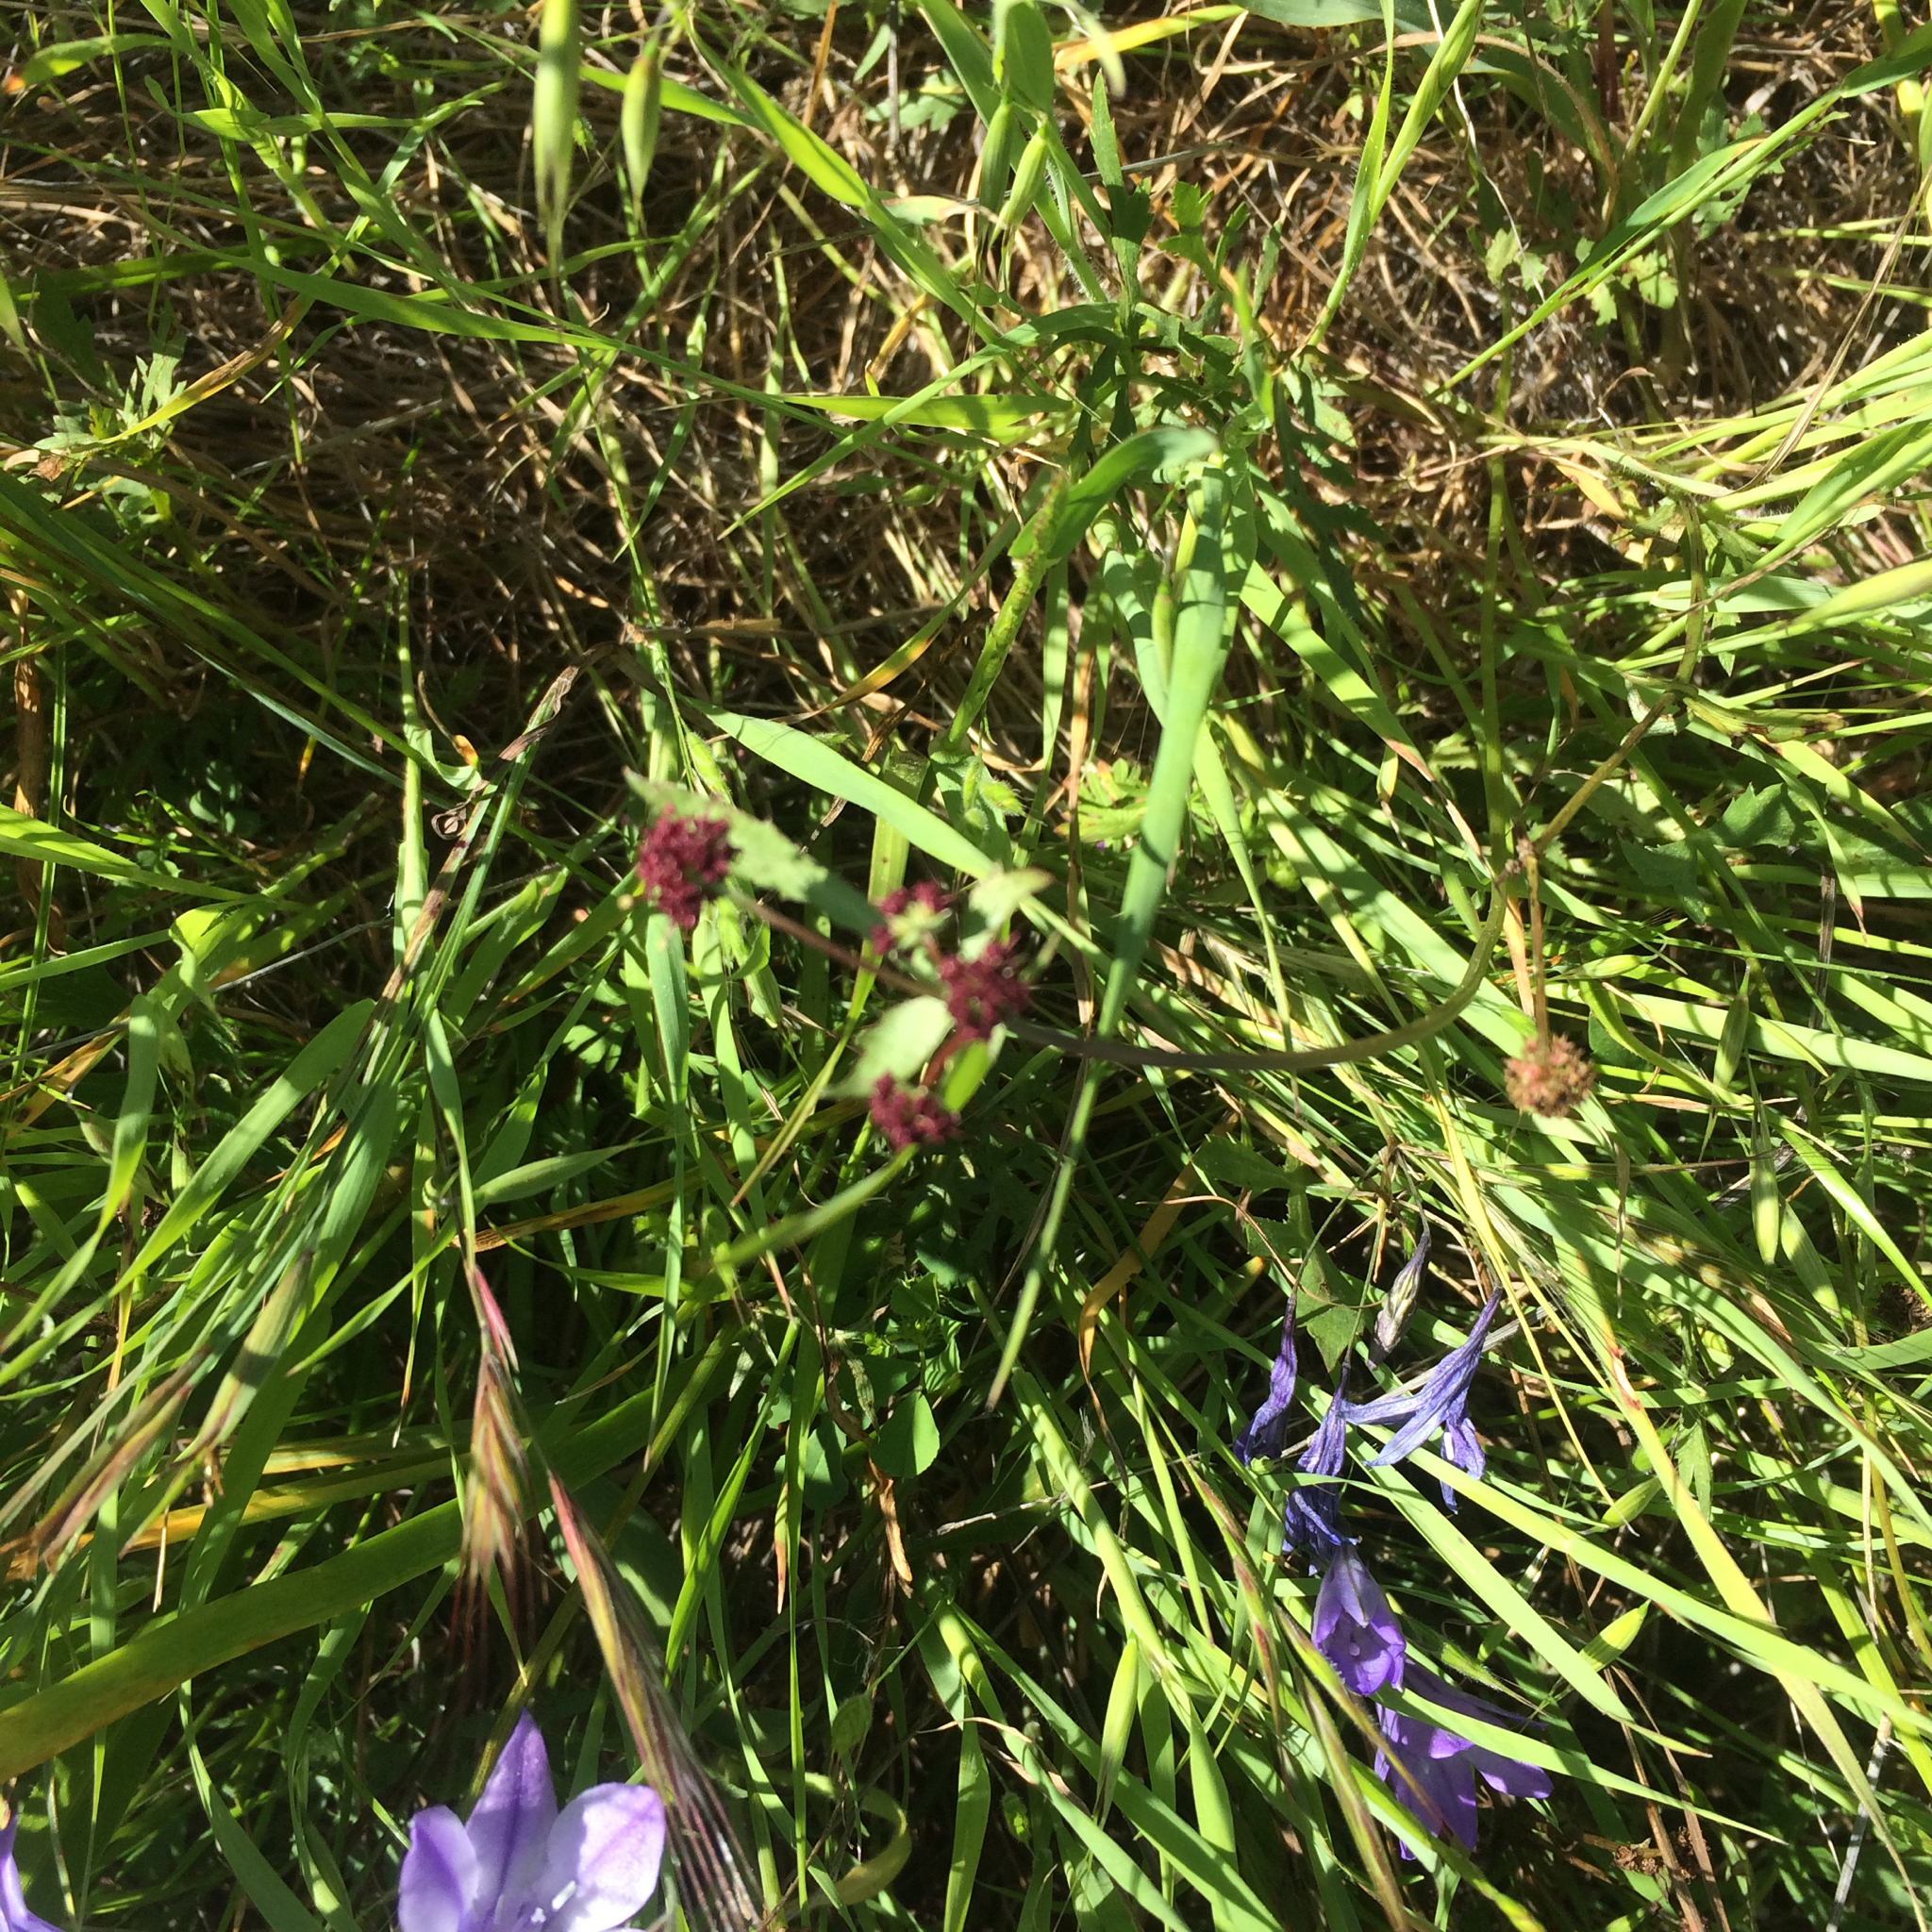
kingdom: Plantae
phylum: Tracheophyta
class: Magnoliopsida
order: Apiales
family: Apiaceae
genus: Sanicula
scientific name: Sanicula bipinnatifida
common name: Shoe-buttons
